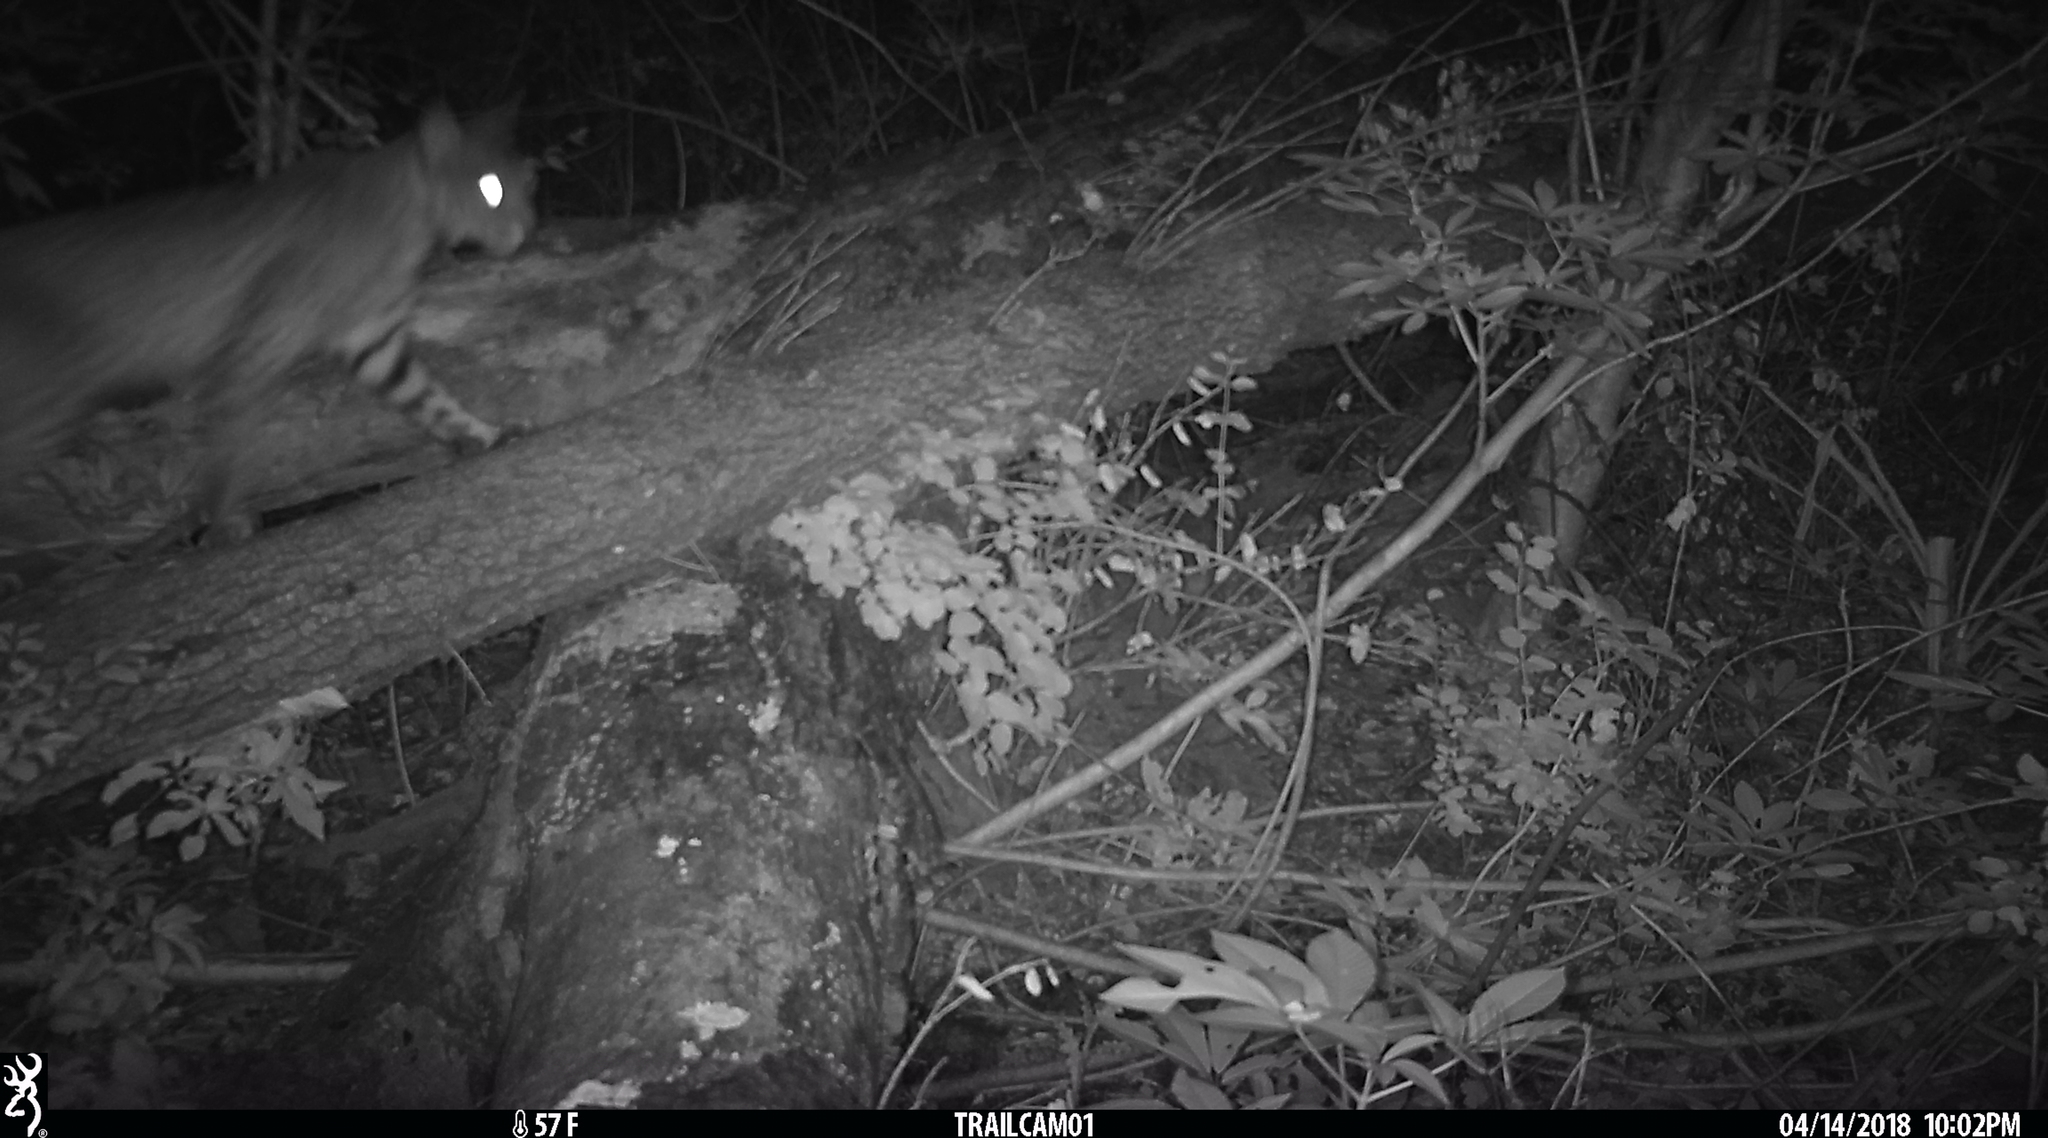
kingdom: Animalia
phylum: Chordata
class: Mammalia
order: Carnivora
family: Felidae
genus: Lynx
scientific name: Lynx rufus
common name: Bobcat
